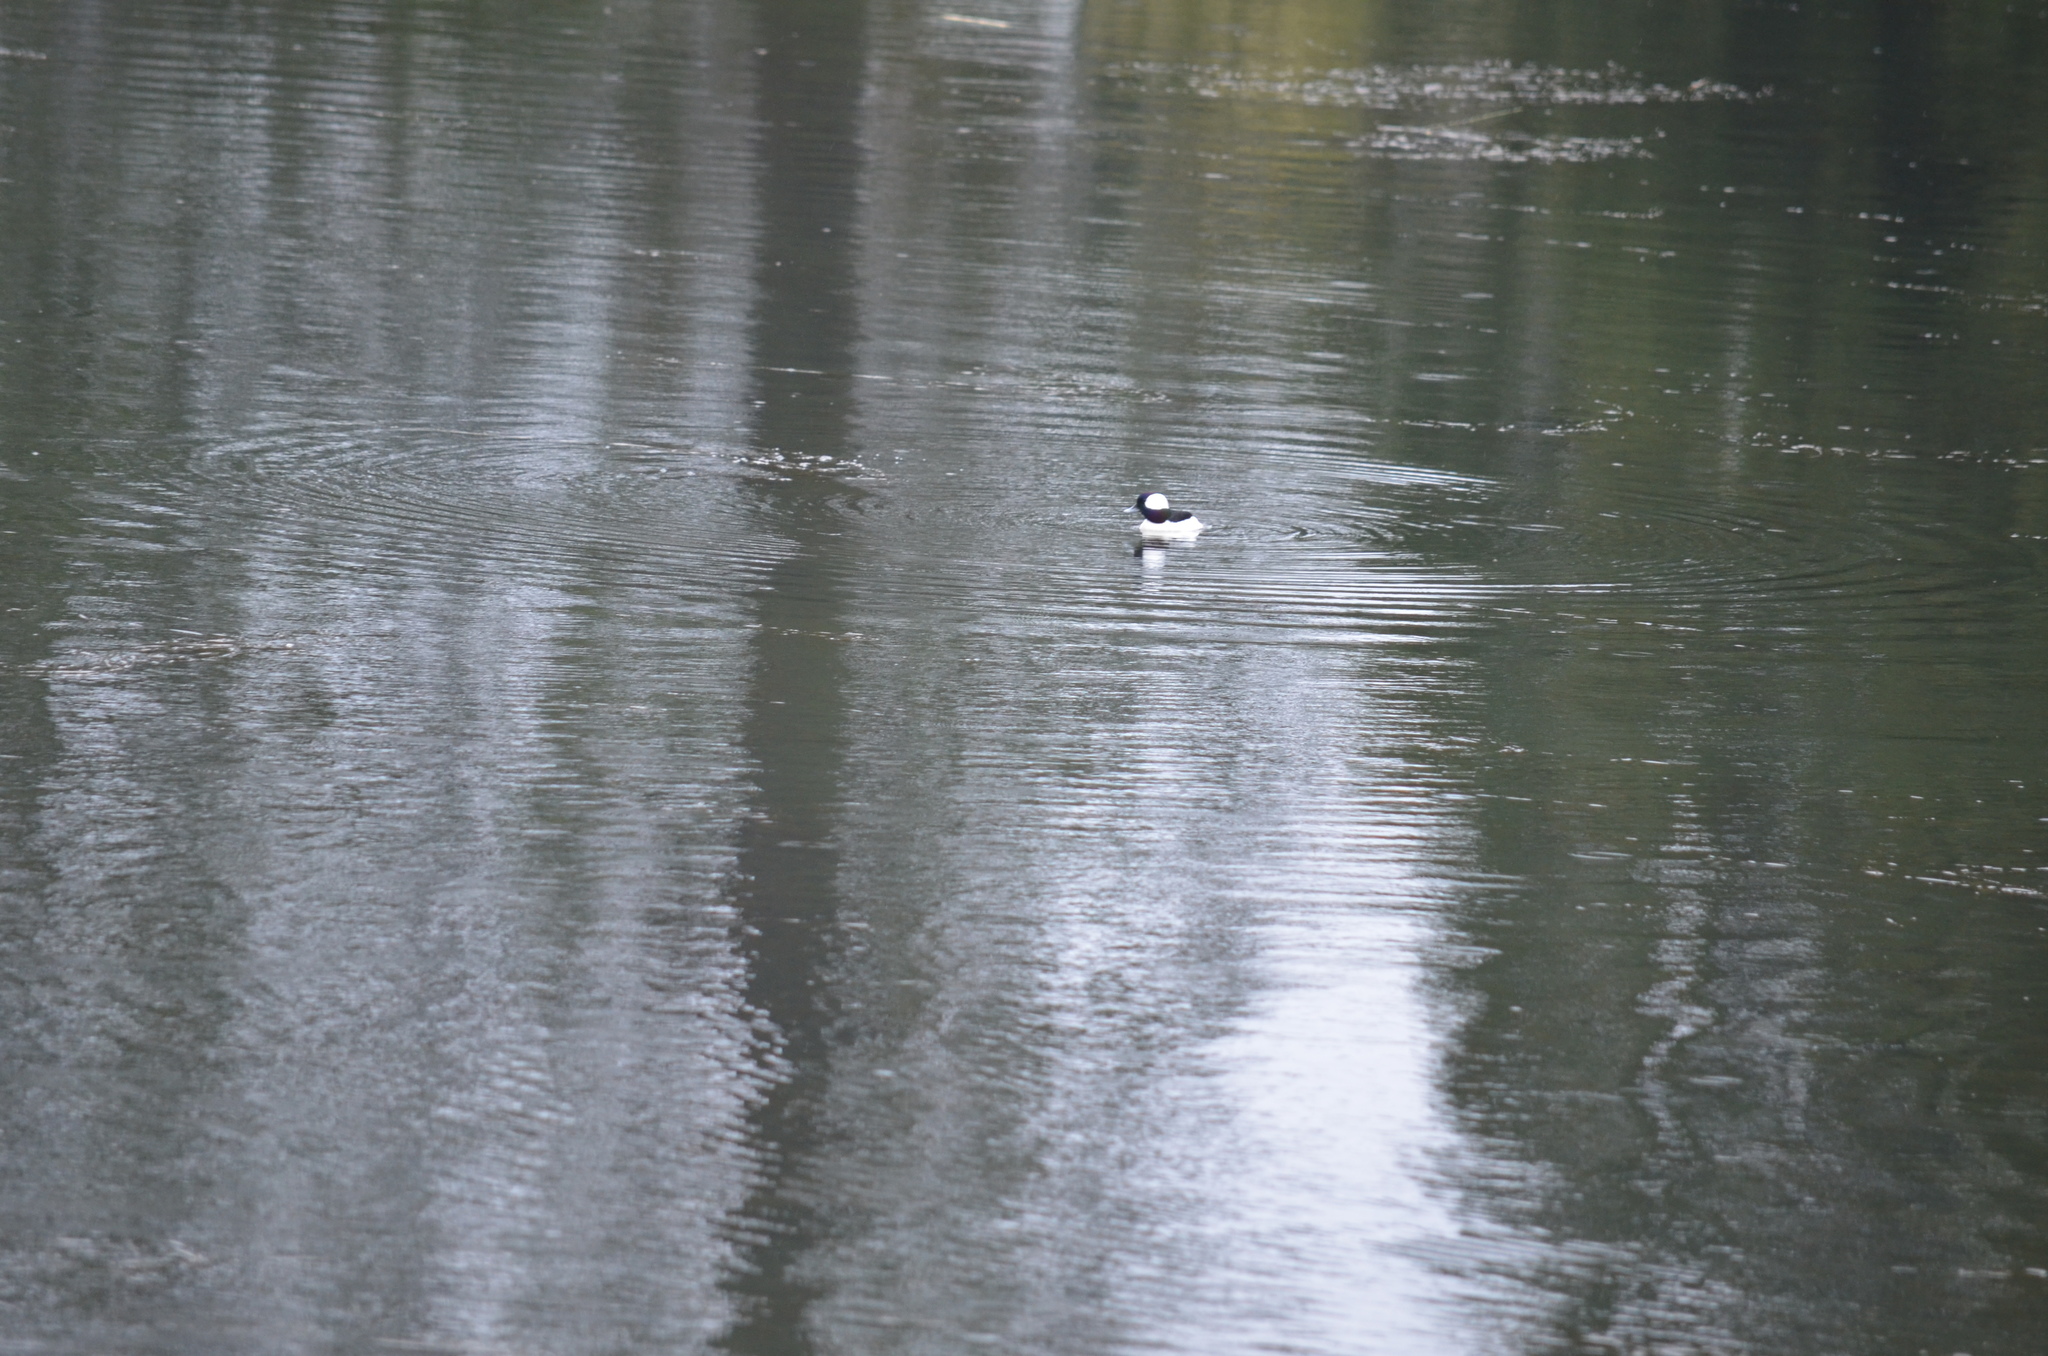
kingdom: Animalia
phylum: Chordata
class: Aves
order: Anseriformes
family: Anatidae
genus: Bucephala
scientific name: Bucephala albeola
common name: Bufflehead
